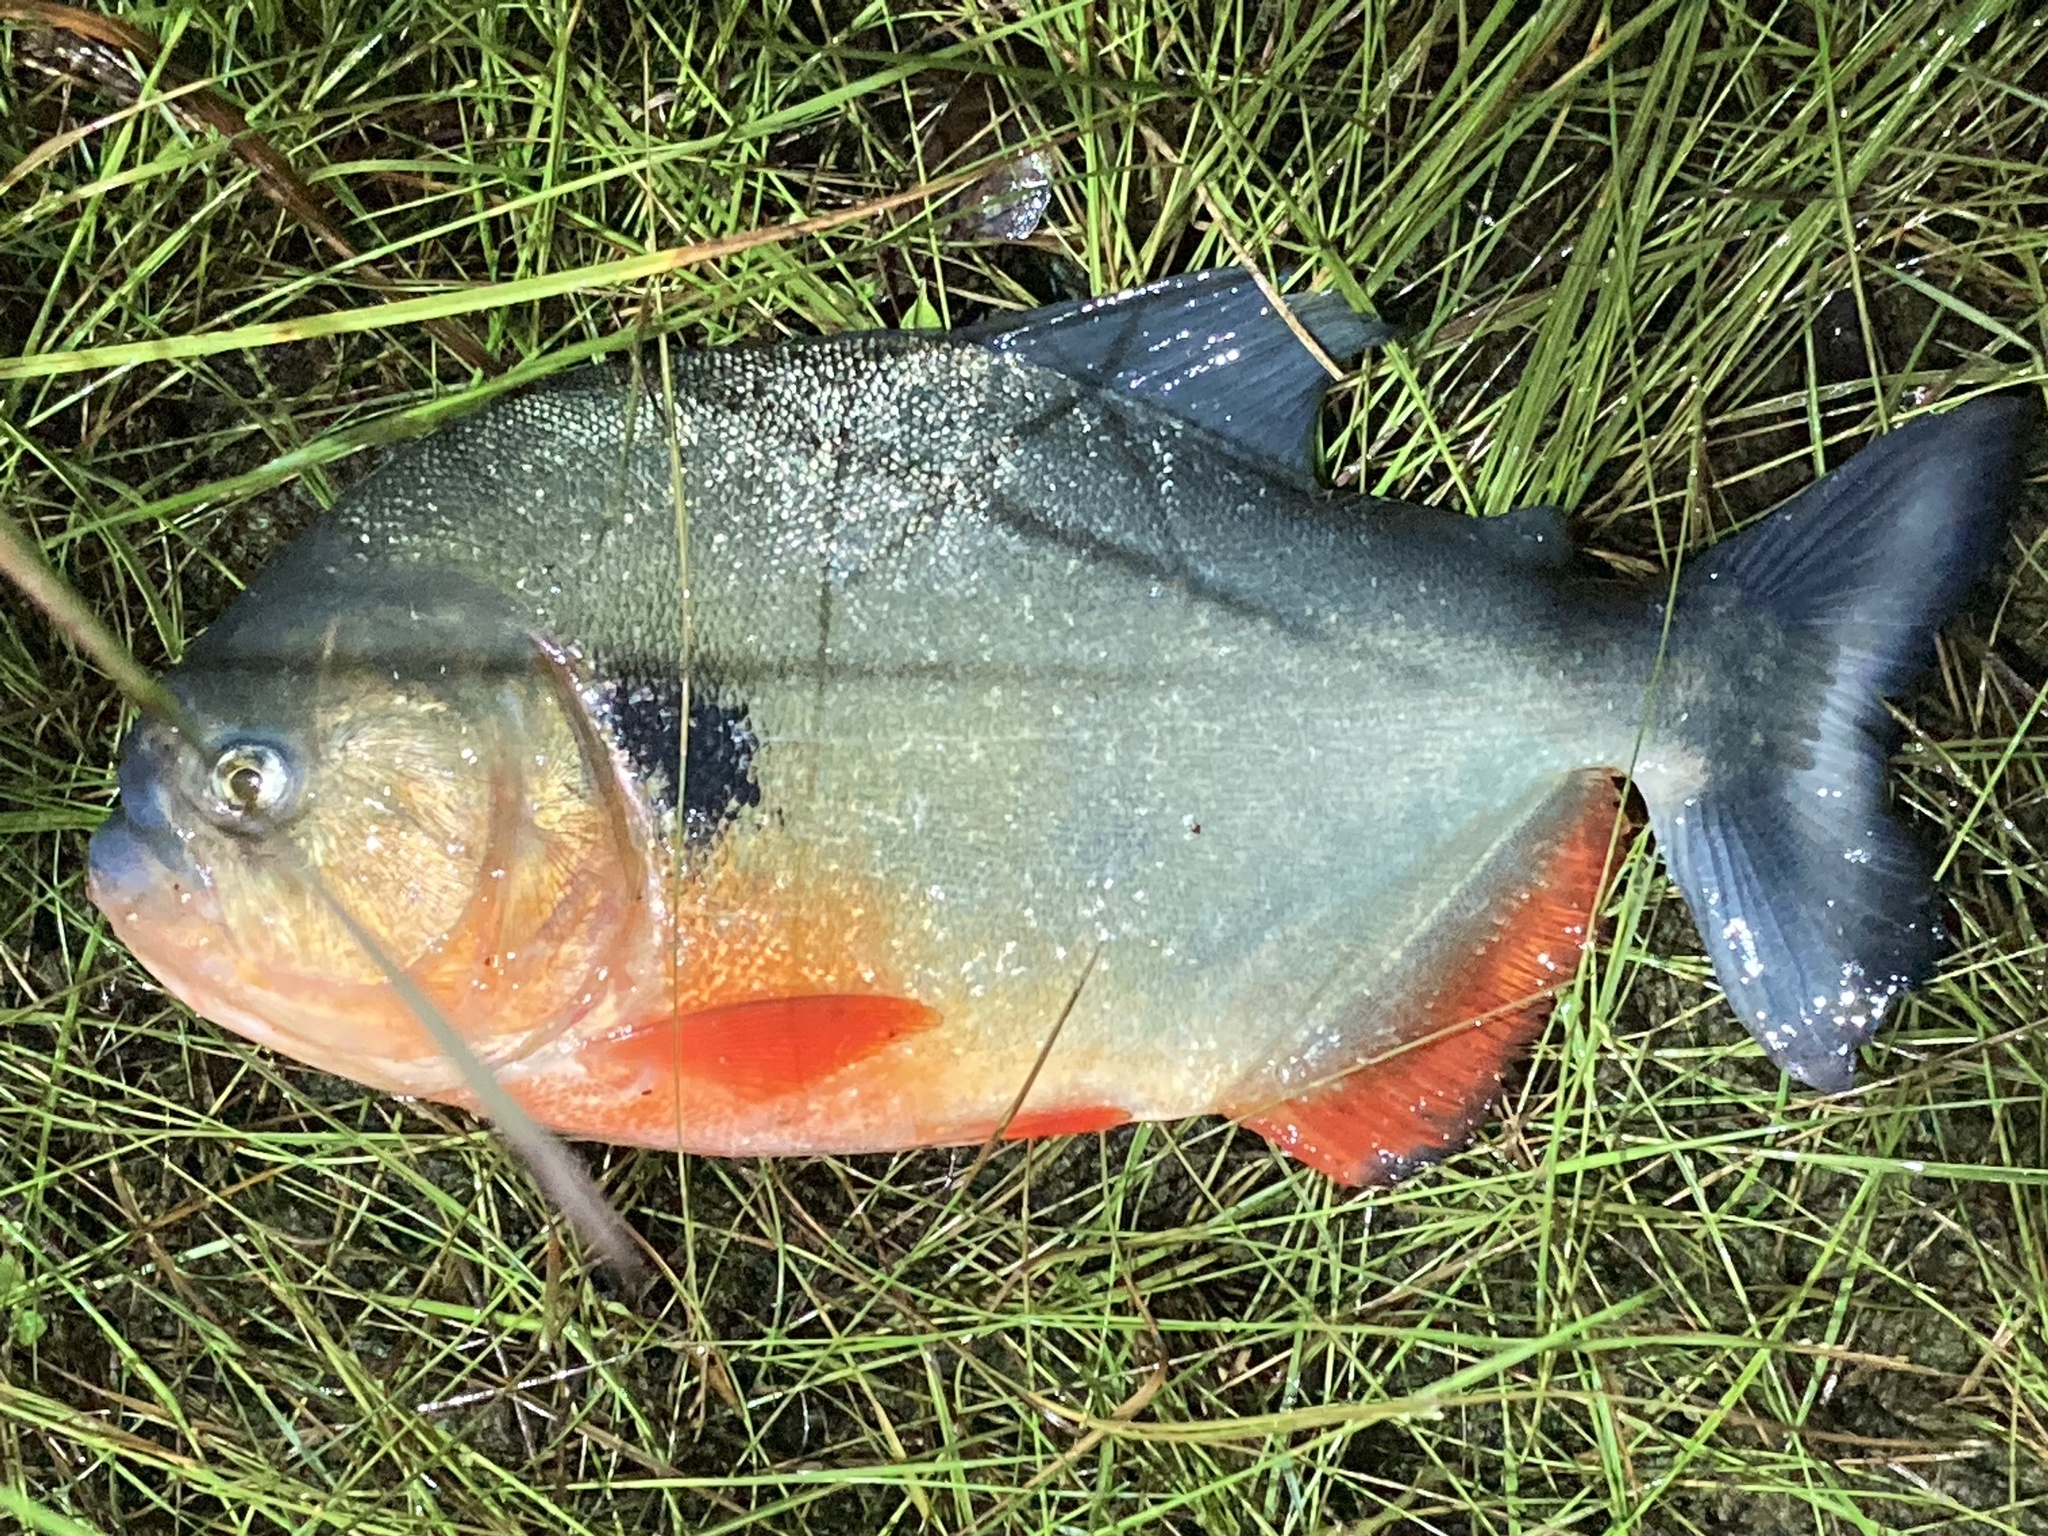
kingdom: Animalia
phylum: Chordata
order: Characiformes
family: Serrasalmidae
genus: Pygocentrus
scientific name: Pygocentrus cariba
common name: Black spot piranha
